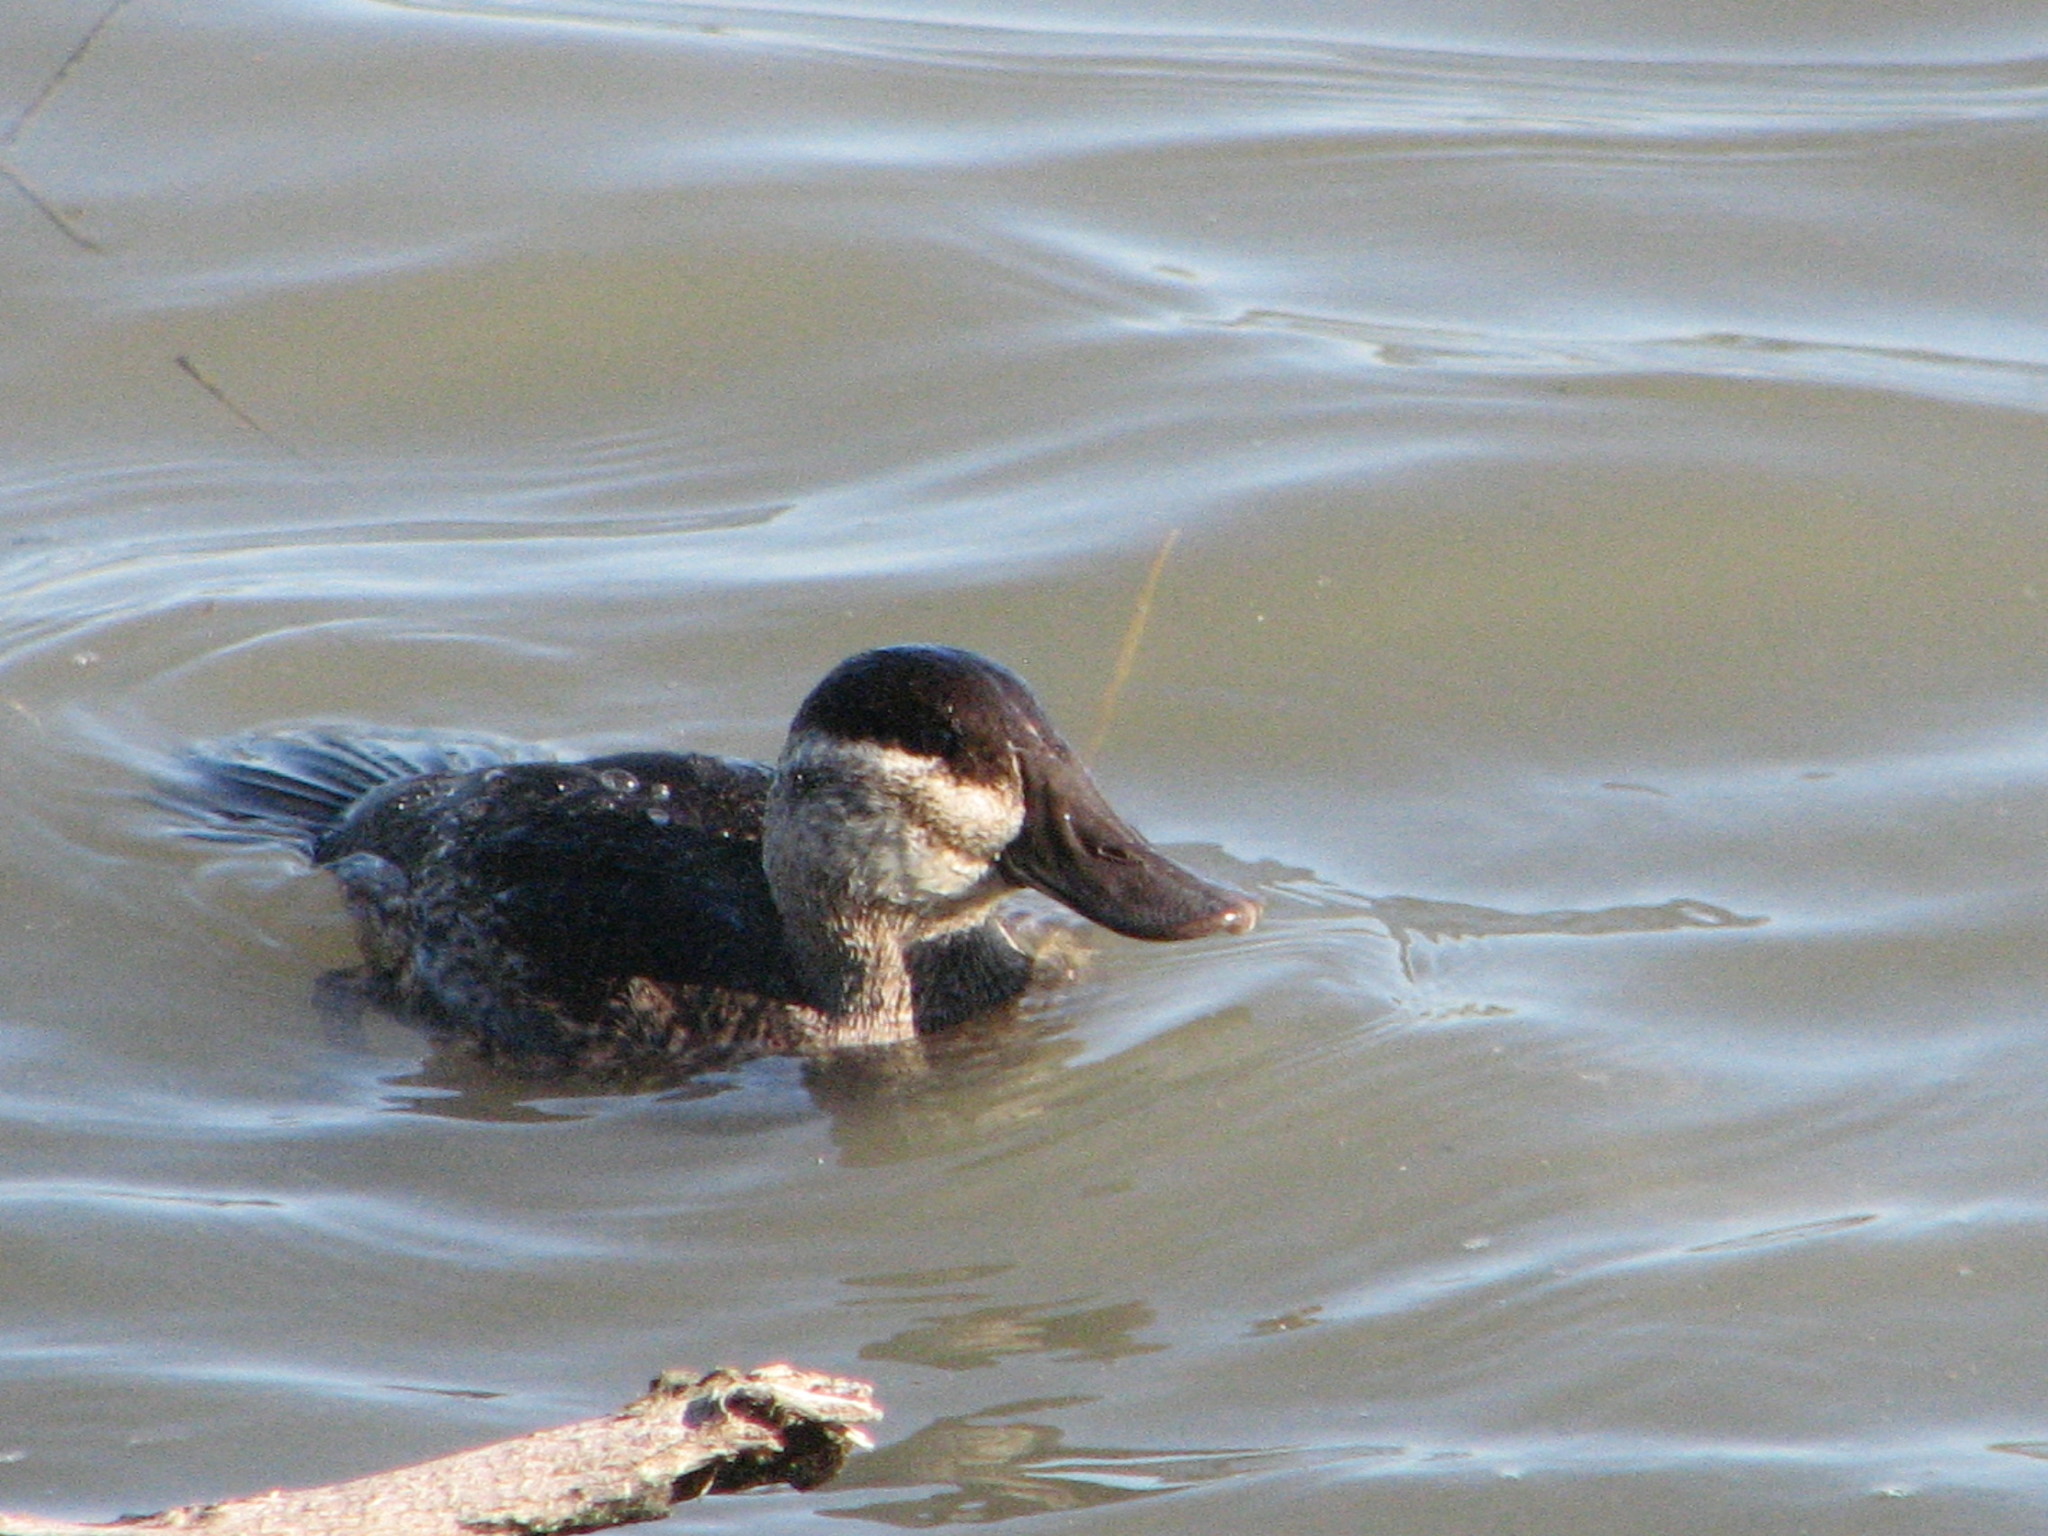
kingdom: Animalia
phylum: Chordata
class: Aves
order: Anseriformes
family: Anatidae
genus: Oxyura
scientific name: Oxyura jamaicensis
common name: Ruddy duck
